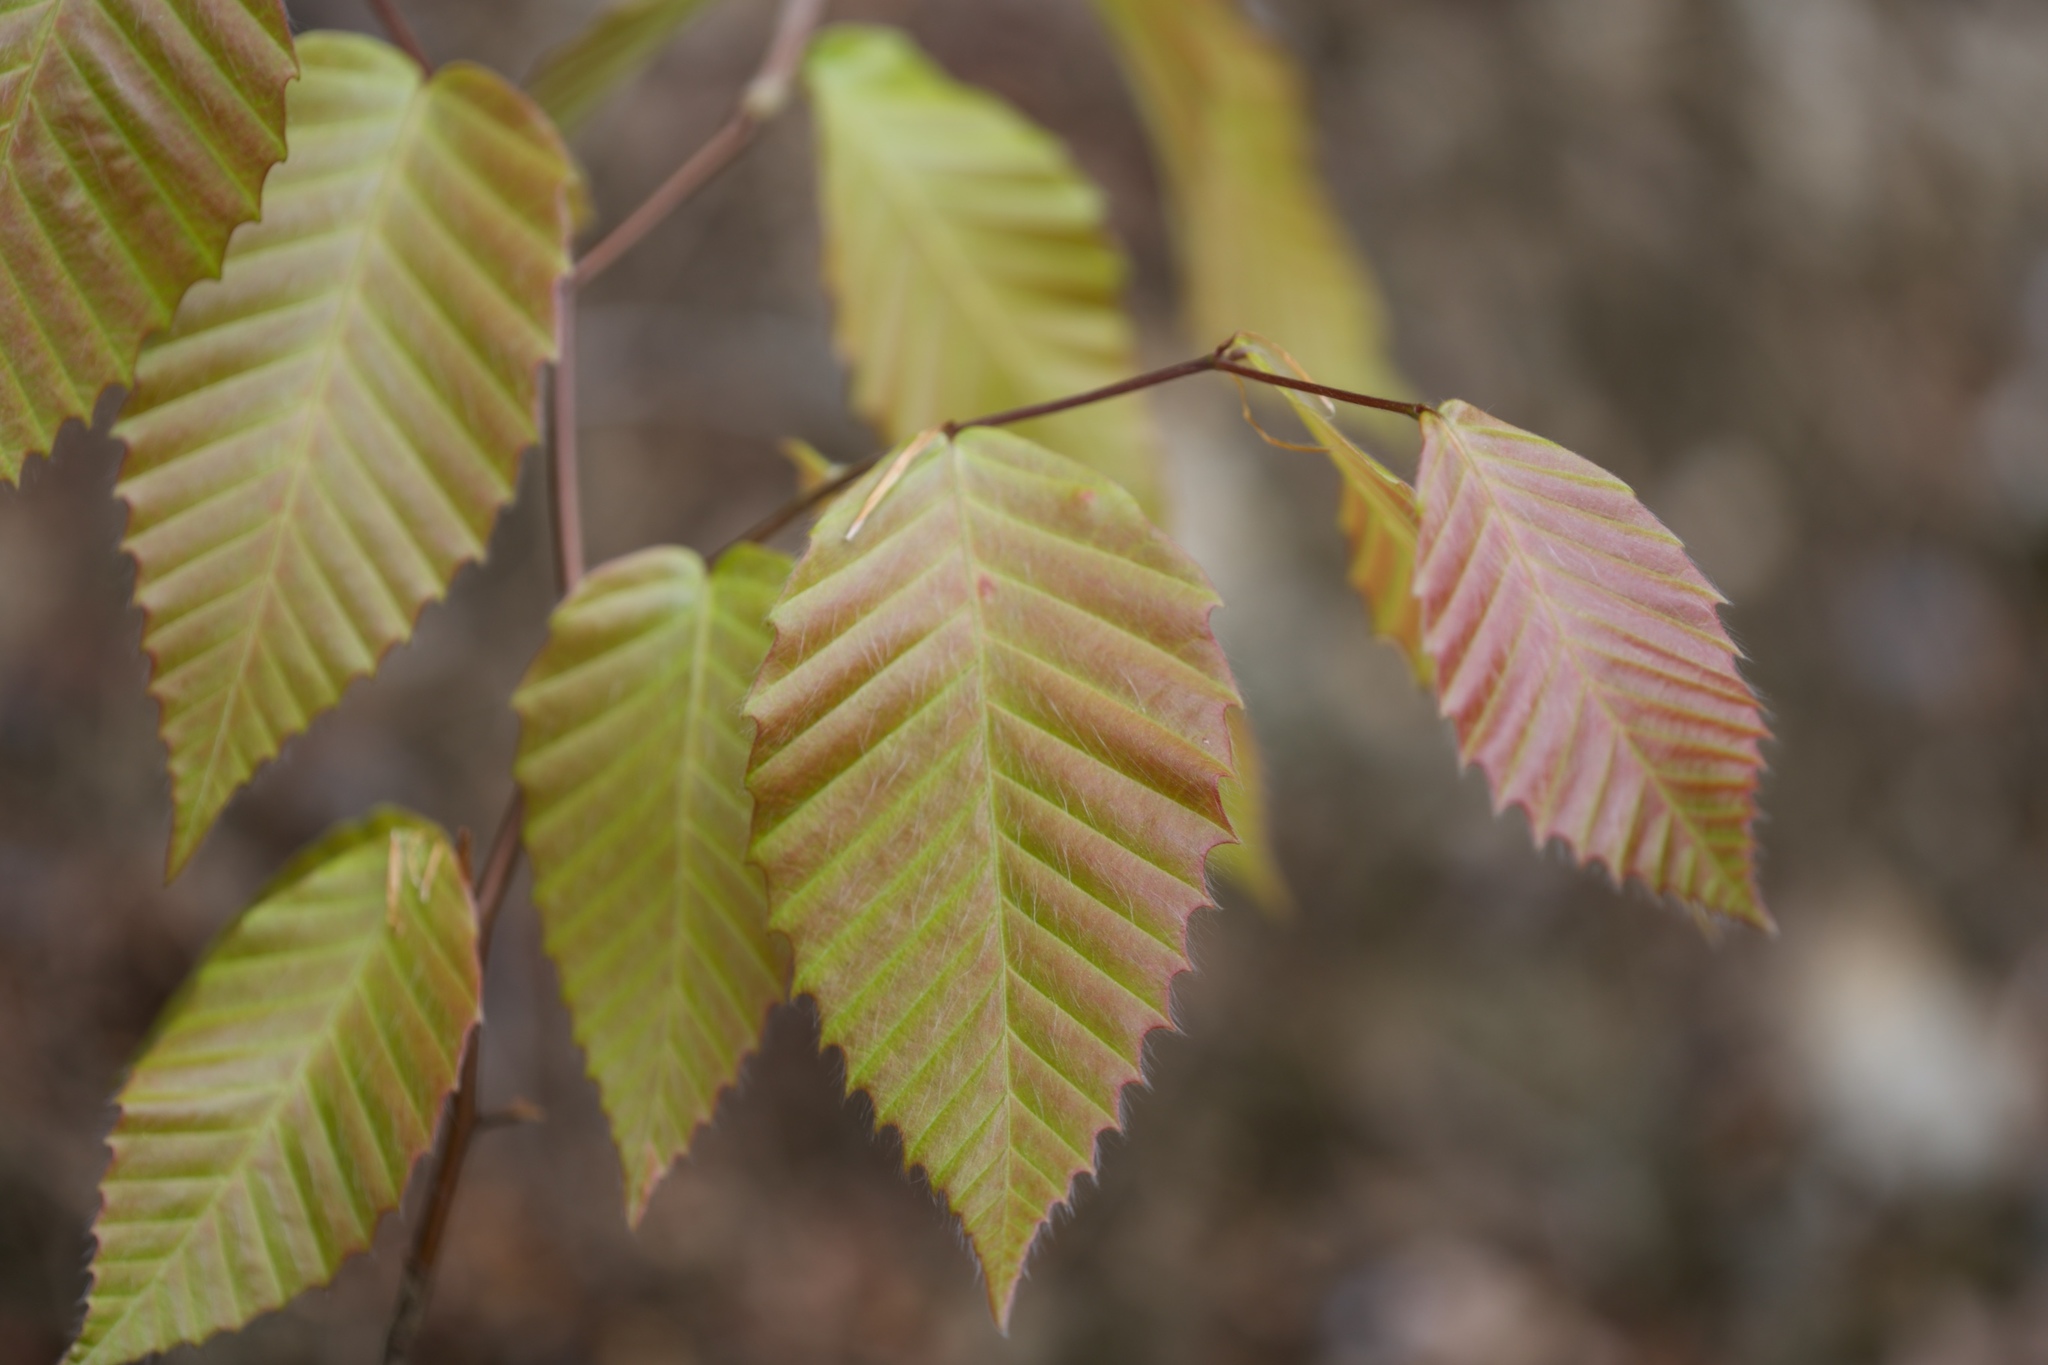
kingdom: Plantae
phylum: Tracheophyta
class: Magnoliopsida
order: Fagales
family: Fagaceae
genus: Fagus
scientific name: Fagus grandifolia
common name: American beech
